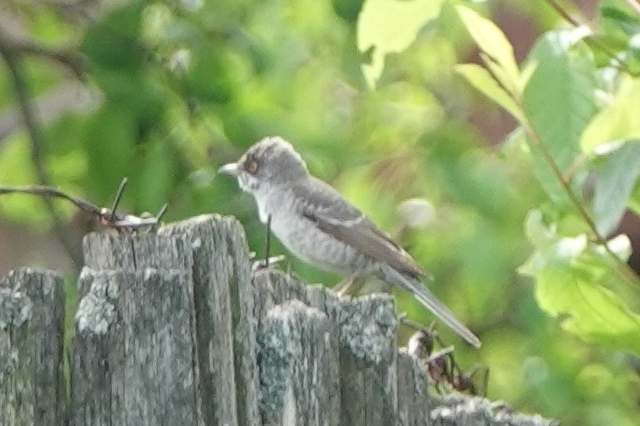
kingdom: Animalia
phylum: Chordata
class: Aves
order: Passeriformes
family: Sylviidae
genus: Sylvia
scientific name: Sylvia nisoria
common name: Barred warbler
